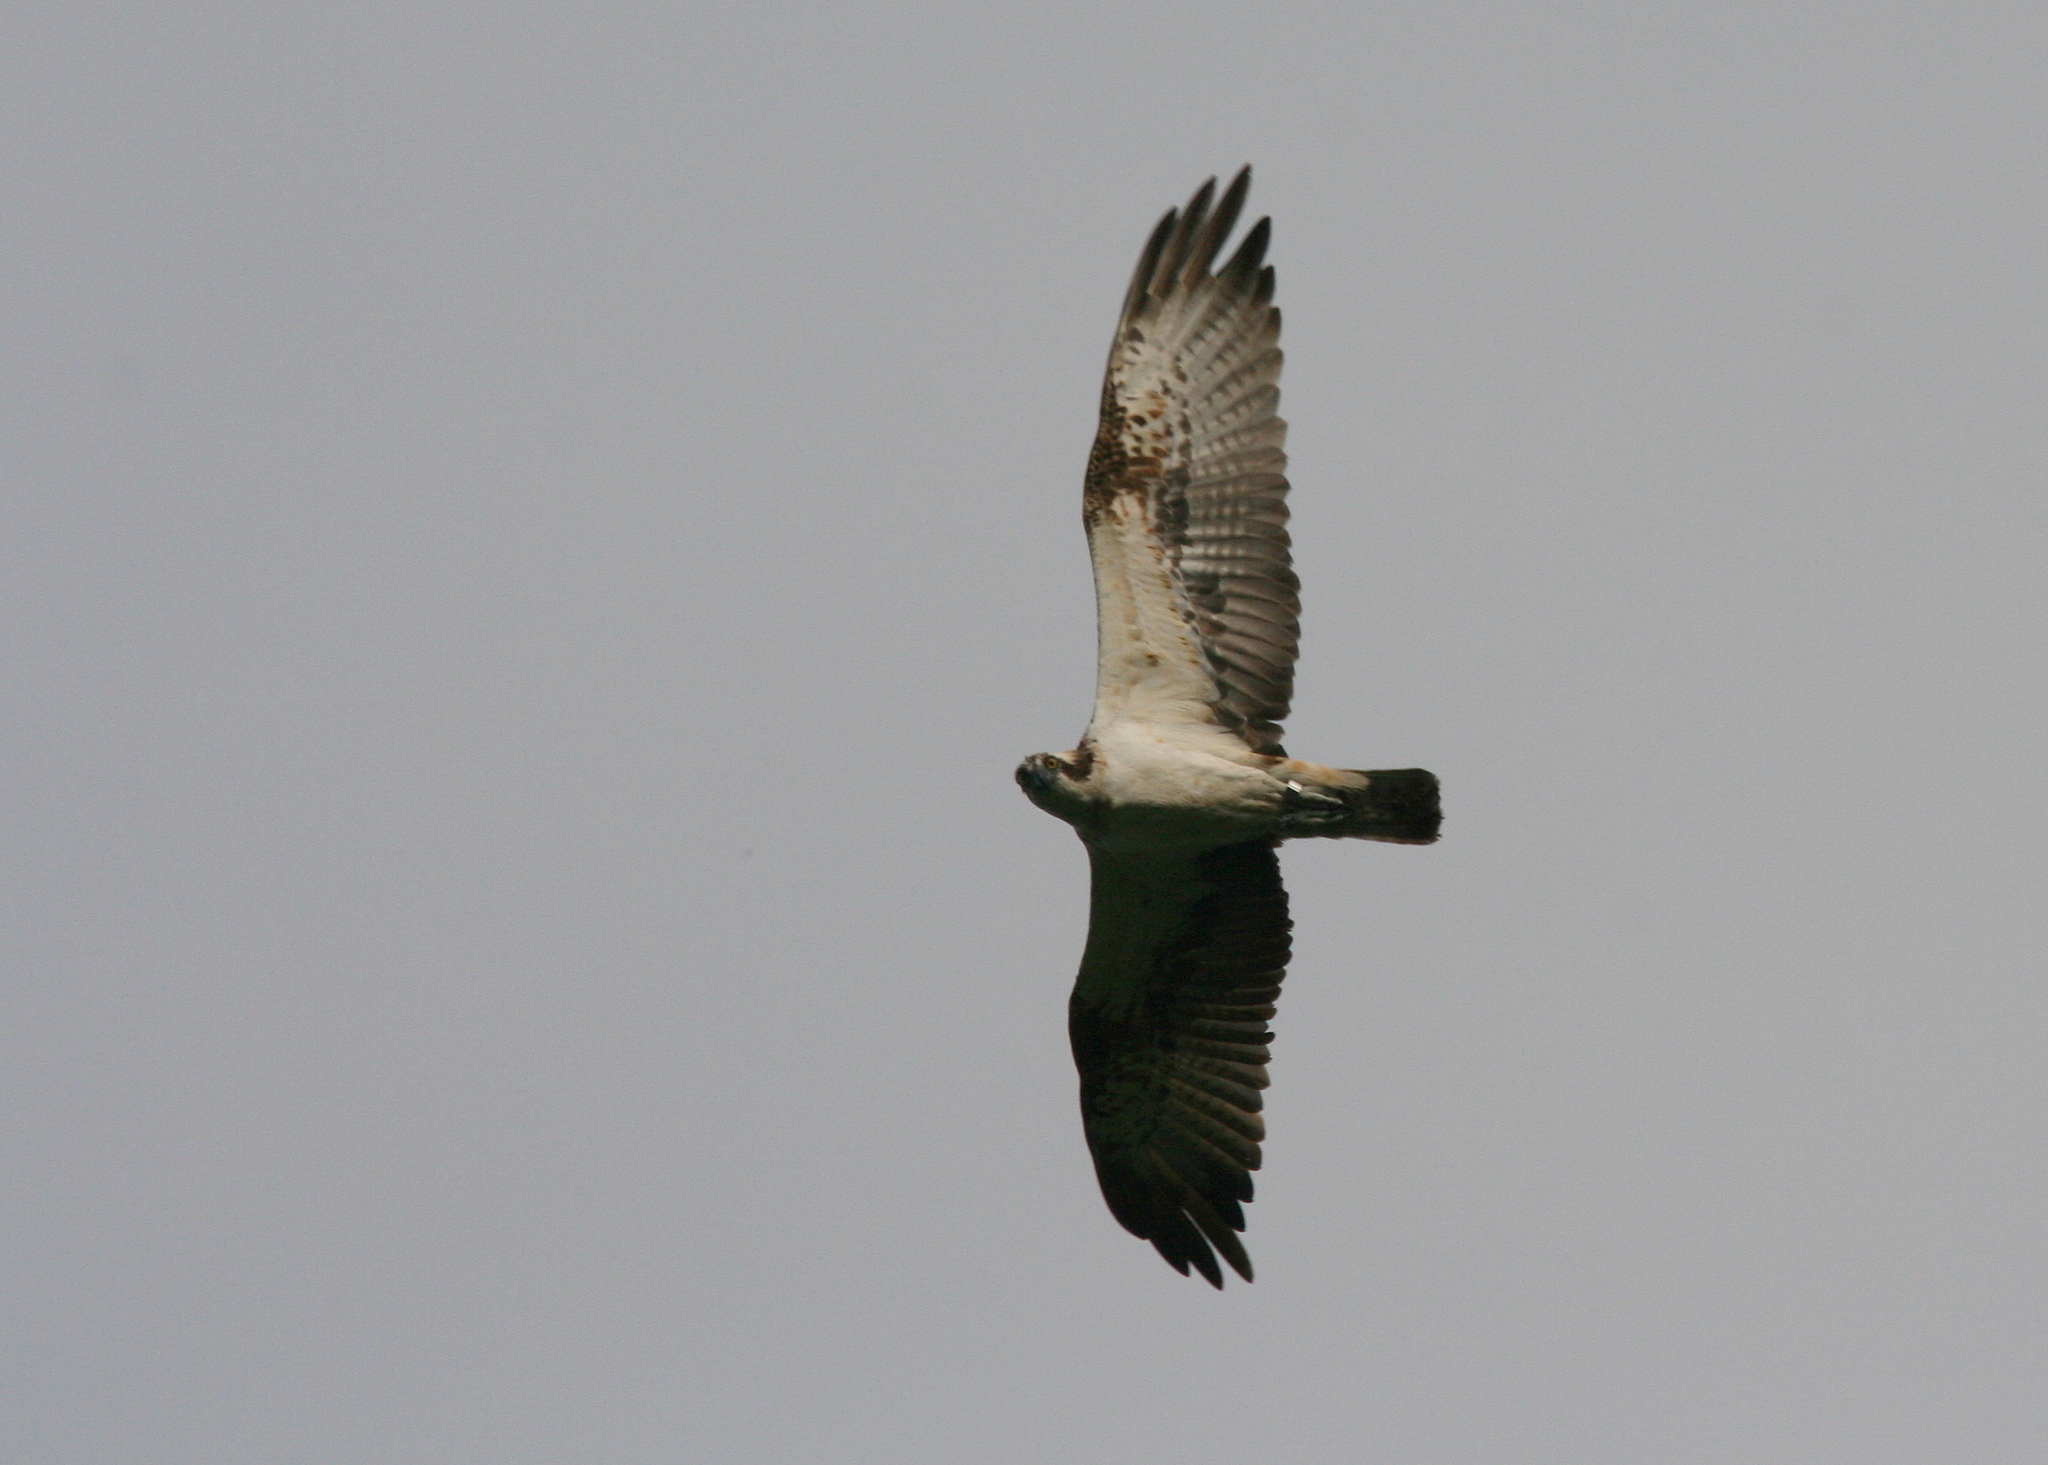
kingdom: Animalia
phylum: Chordata
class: Aves
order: Accipitriformes
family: Pandionidae
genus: Pandion
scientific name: Pandion haliaetus
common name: Osprey
